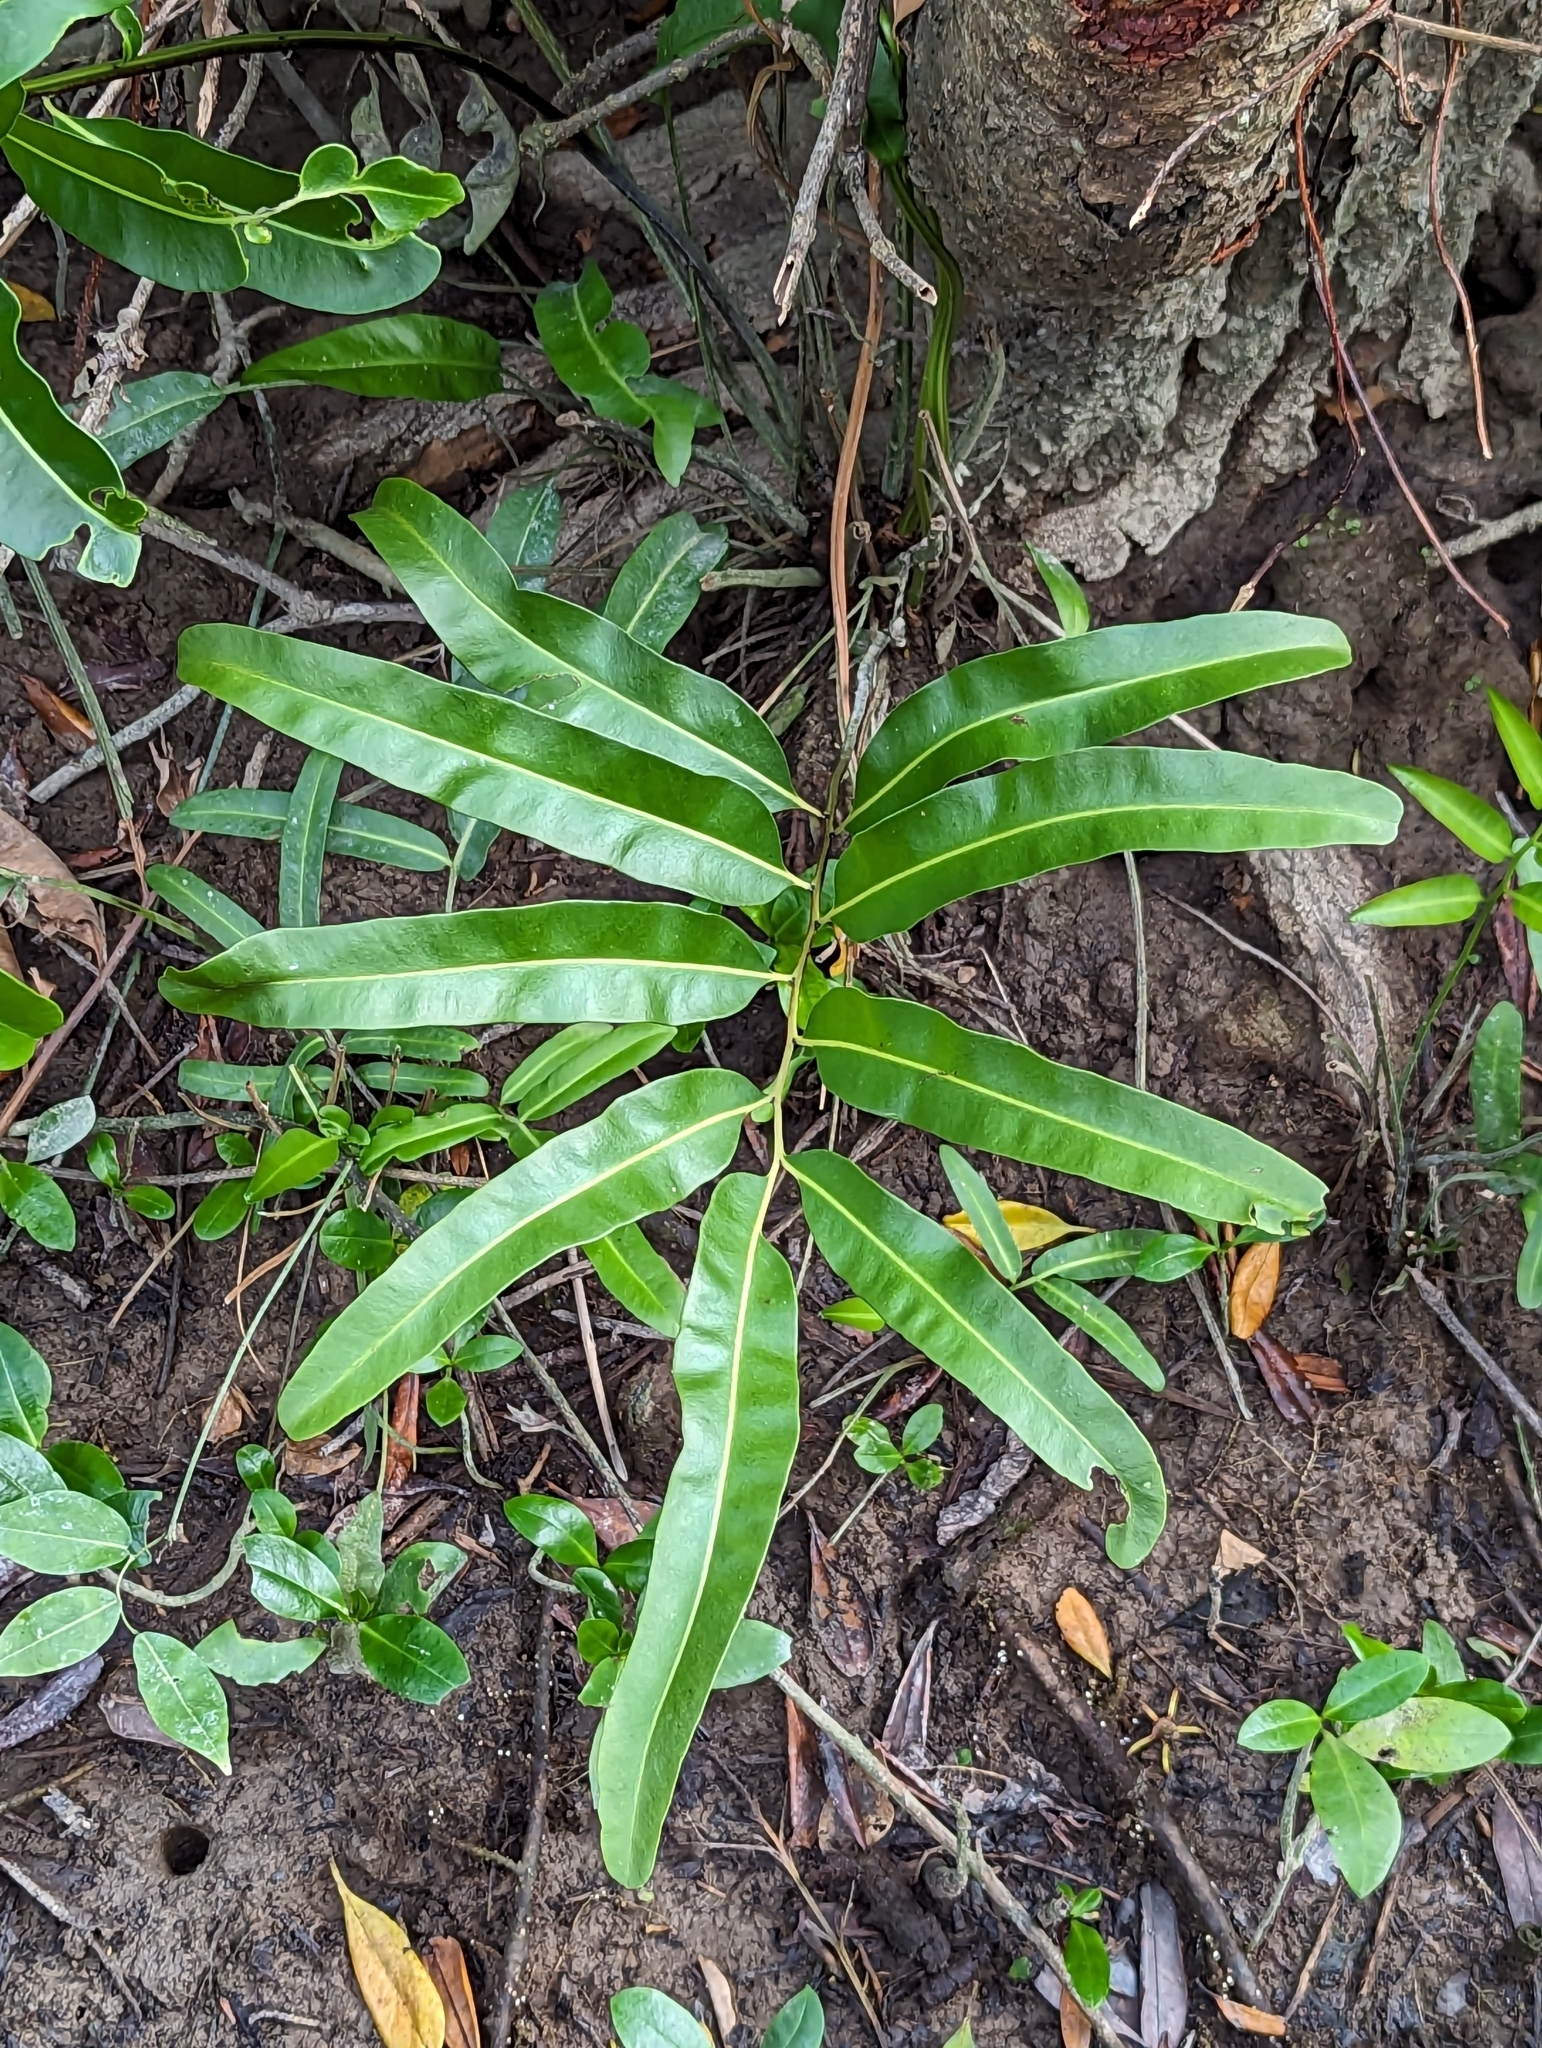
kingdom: Plantae
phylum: Tracheophyta
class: Polypodiopsida
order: Polypodiales
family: Pteridaceae
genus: Acrostichum
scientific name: Acrostichum aureum
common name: Leather fern
